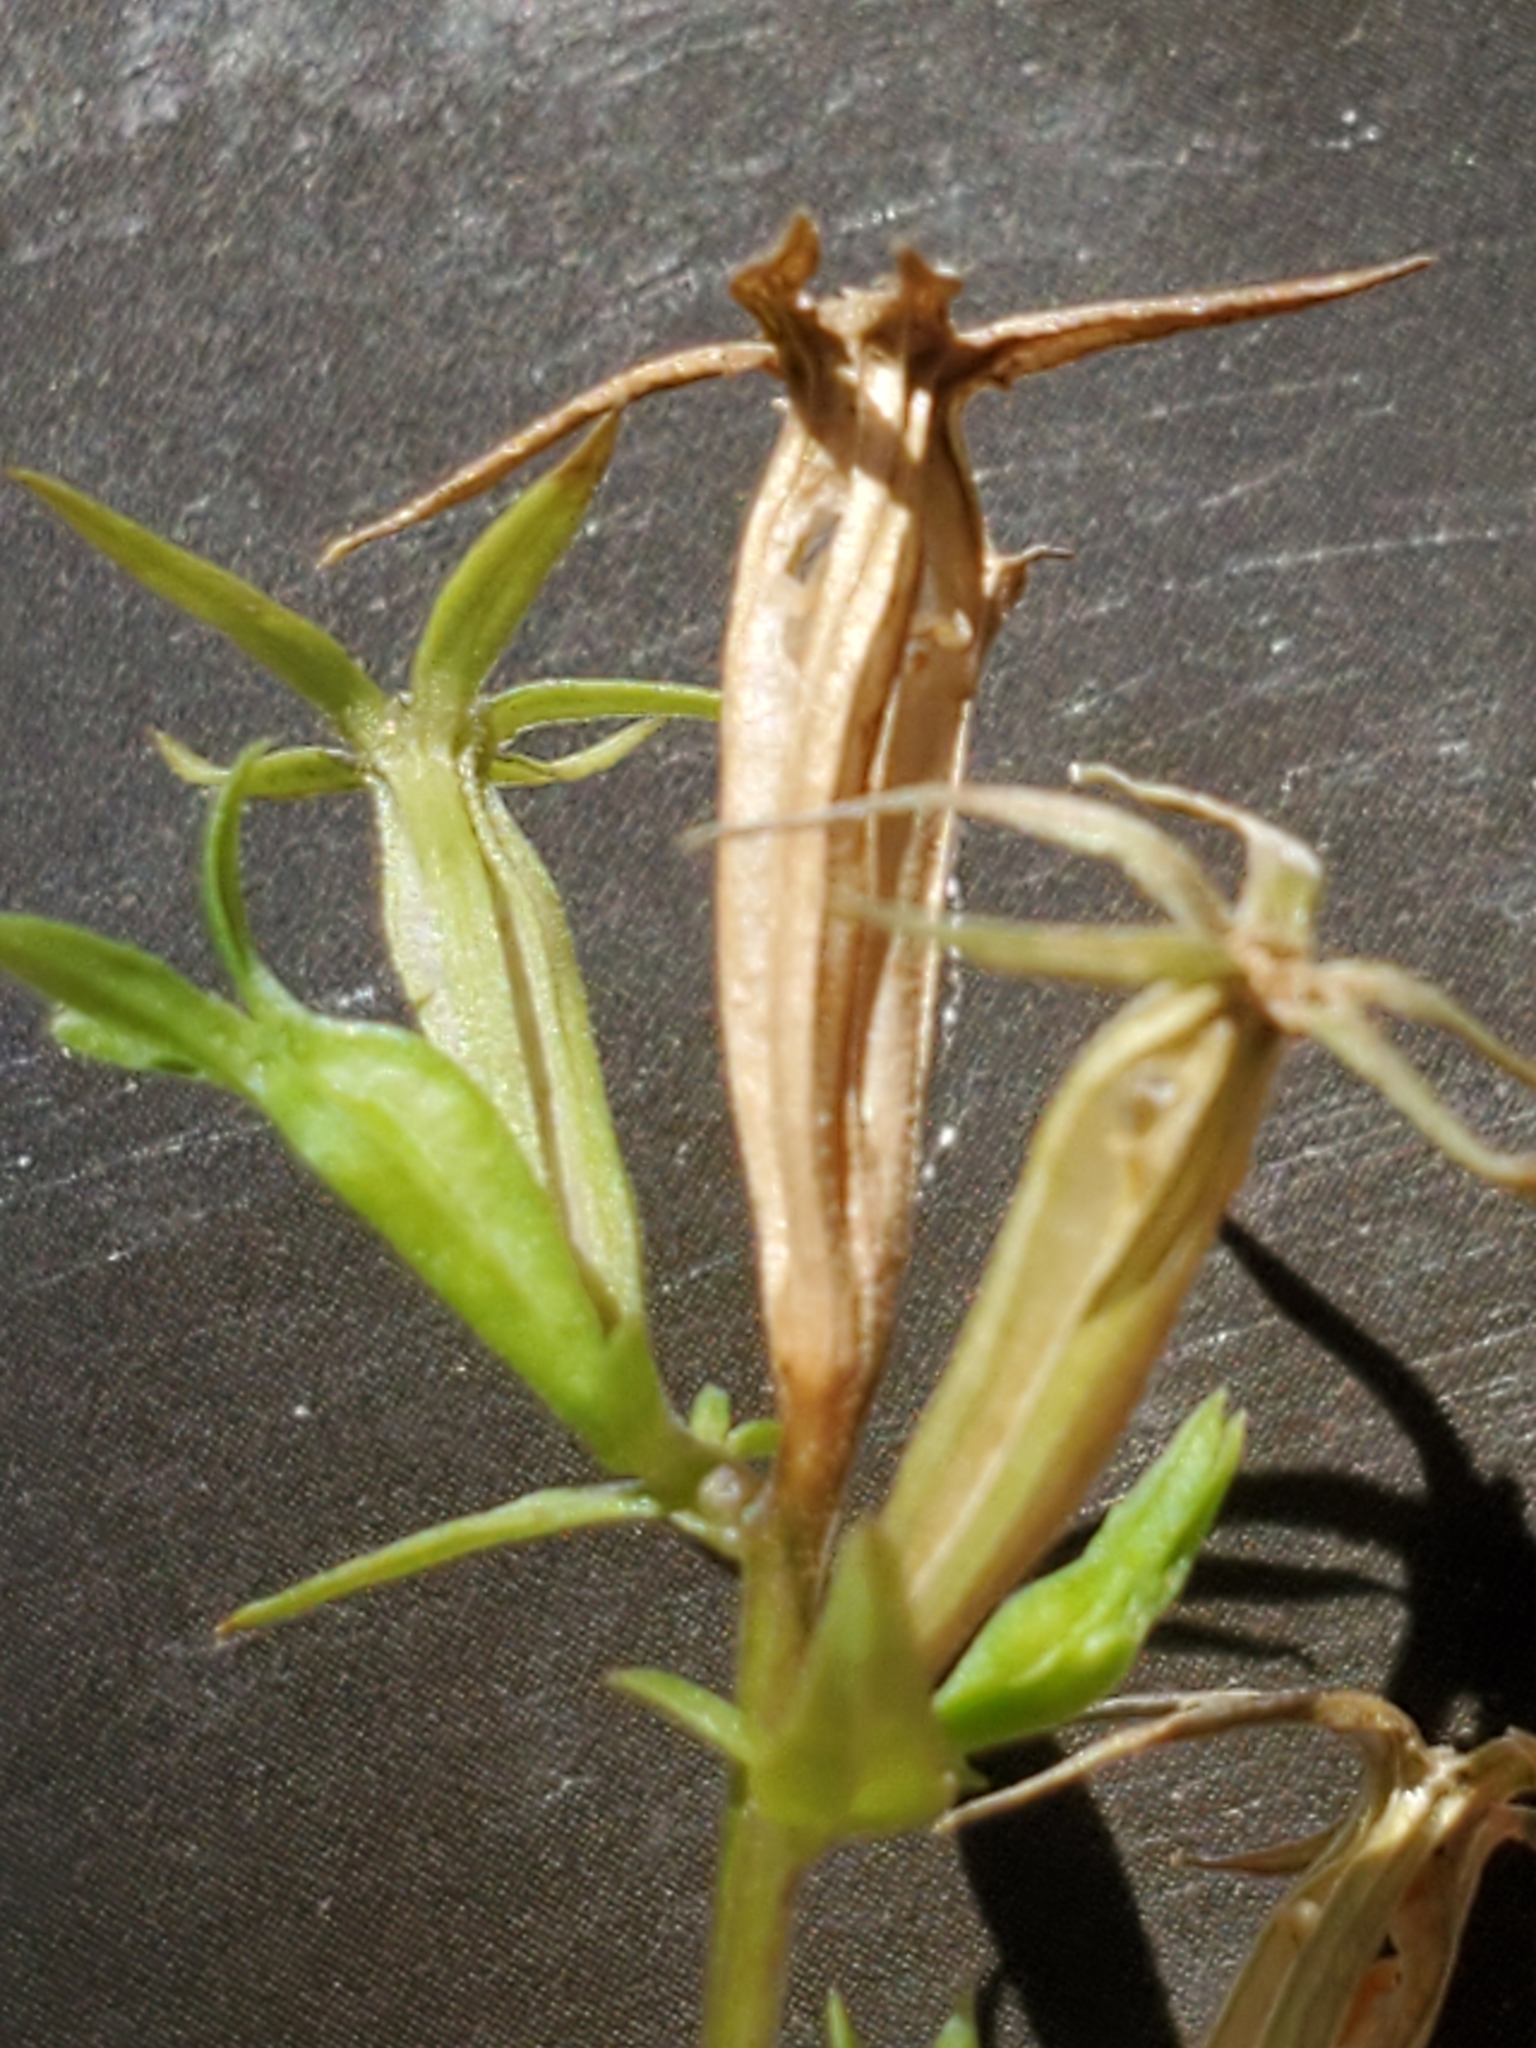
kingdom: Plantae
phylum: Tracheophyta
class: Magnoliopsida
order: Asterales
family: Campanulaceae
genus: Triodanis
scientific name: Triodanis coloradoensis
